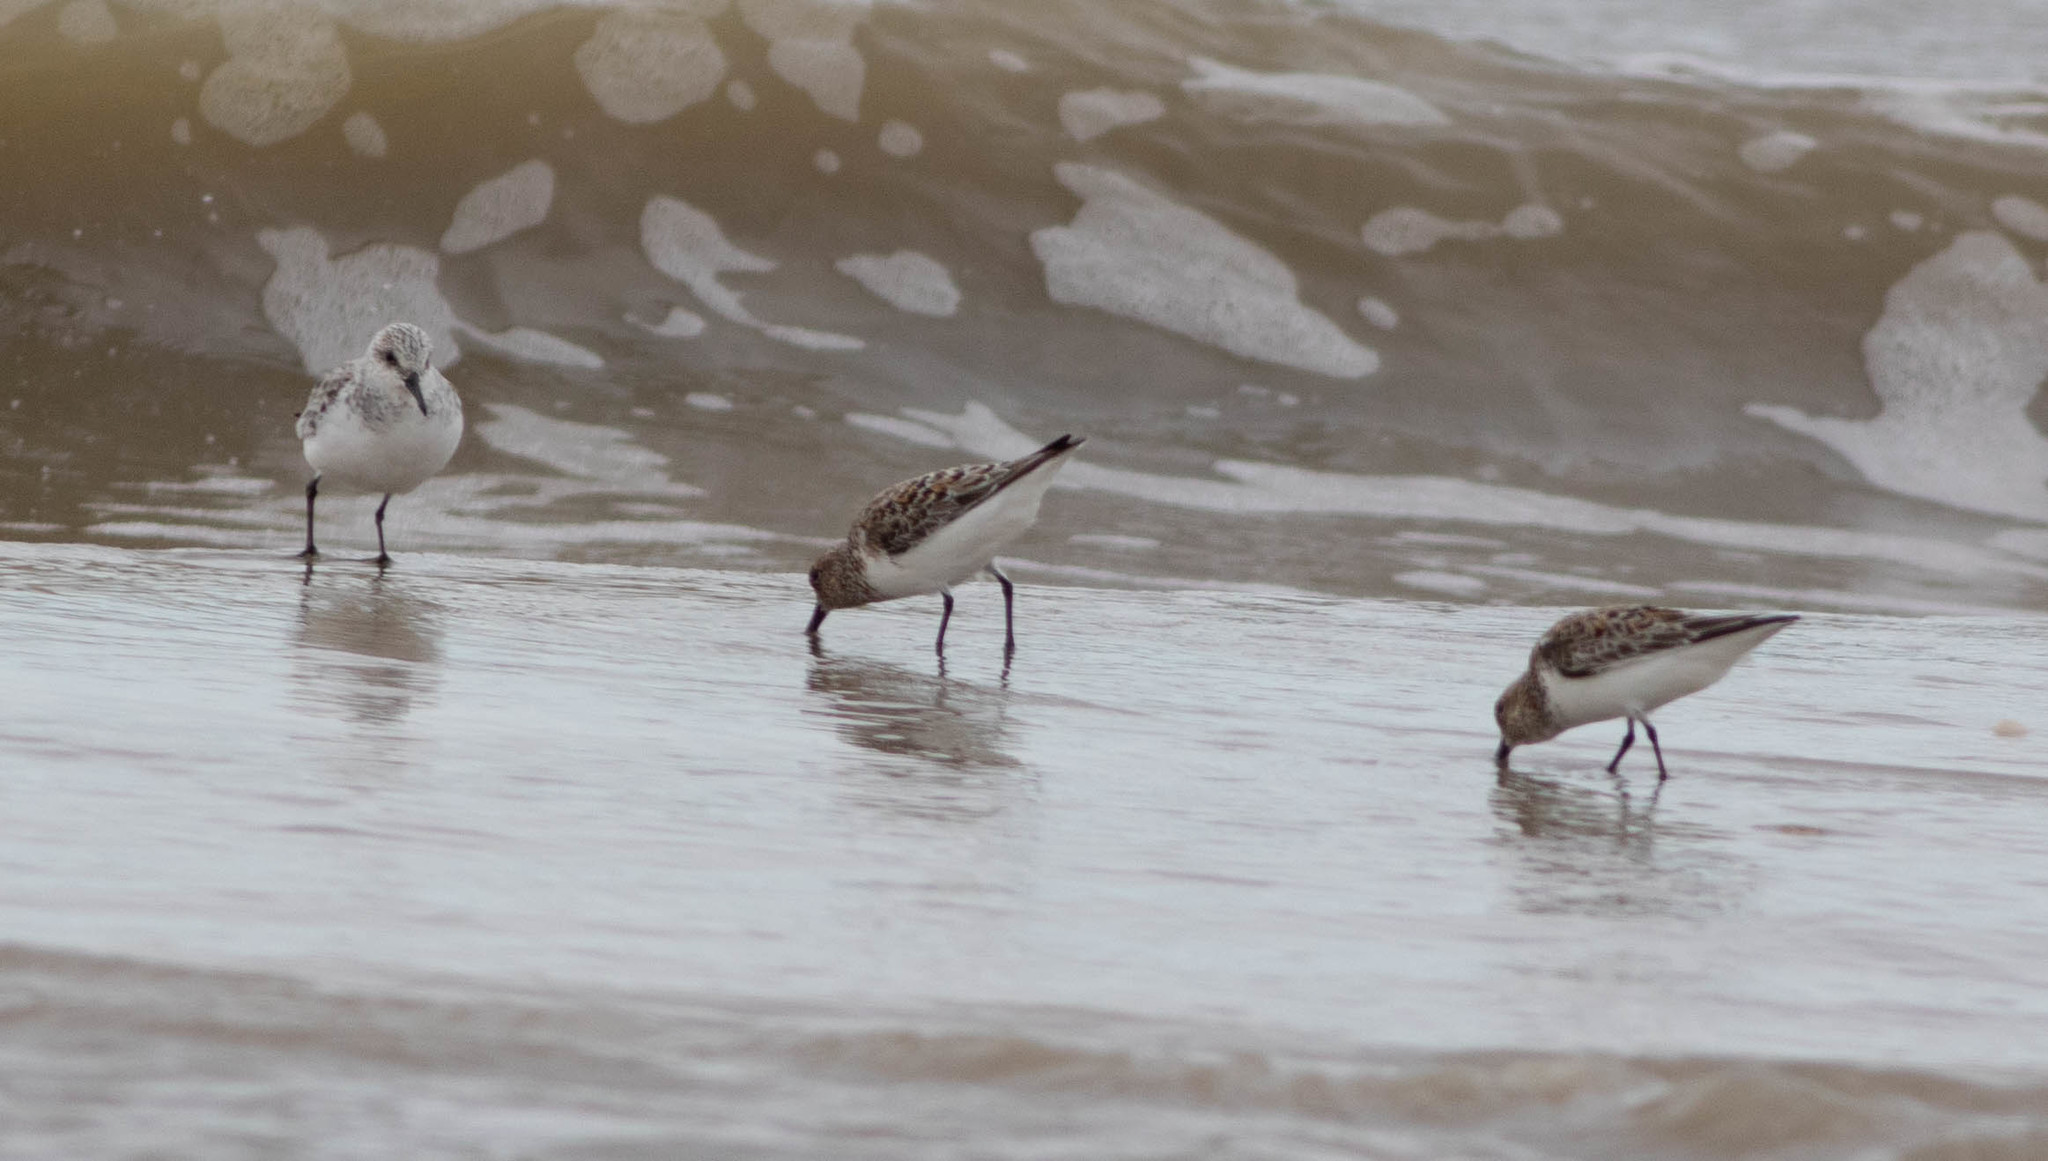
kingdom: Animalia
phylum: Chordata
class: Aves
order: Charadriiformes
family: Scolopacidae
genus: Calidris
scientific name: Calidris alba
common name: Sanderling
